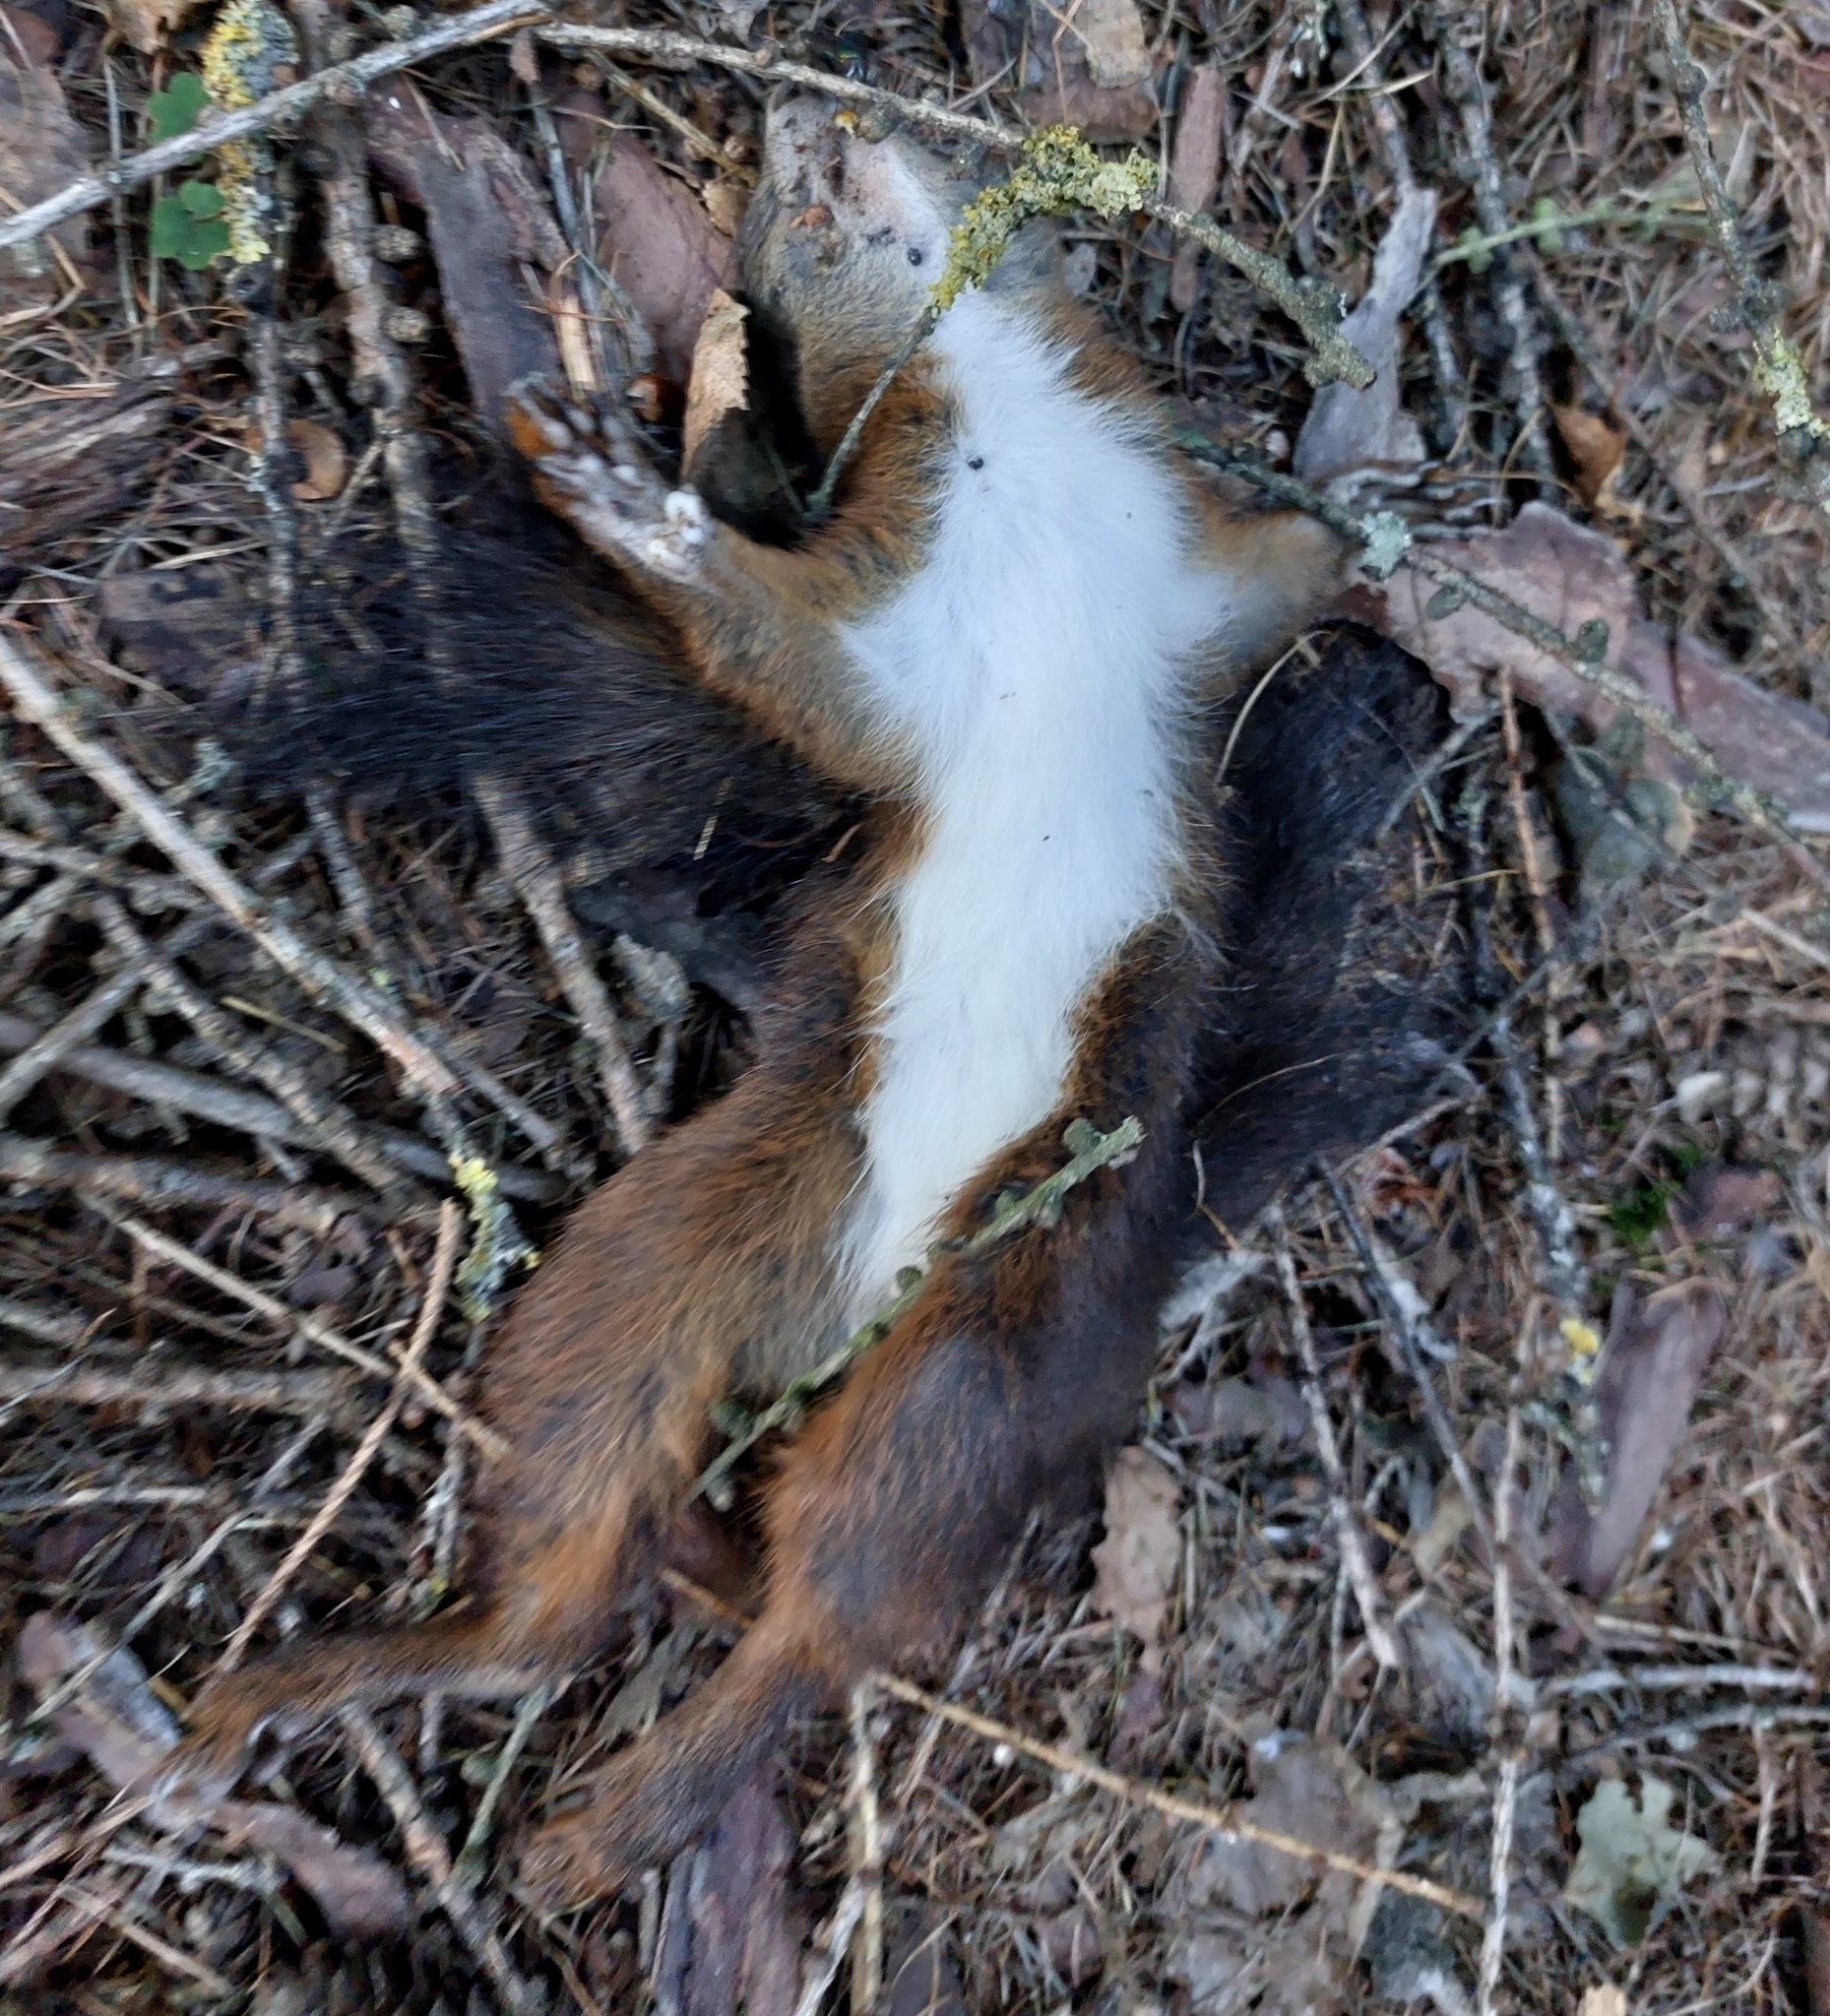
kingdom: Animalia
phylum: Chordata
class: Mammalia
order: Rodentia
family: Sciuridae
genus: Sciurus
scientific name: Sciurus vulgaris
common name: Eurasian red squirrel
